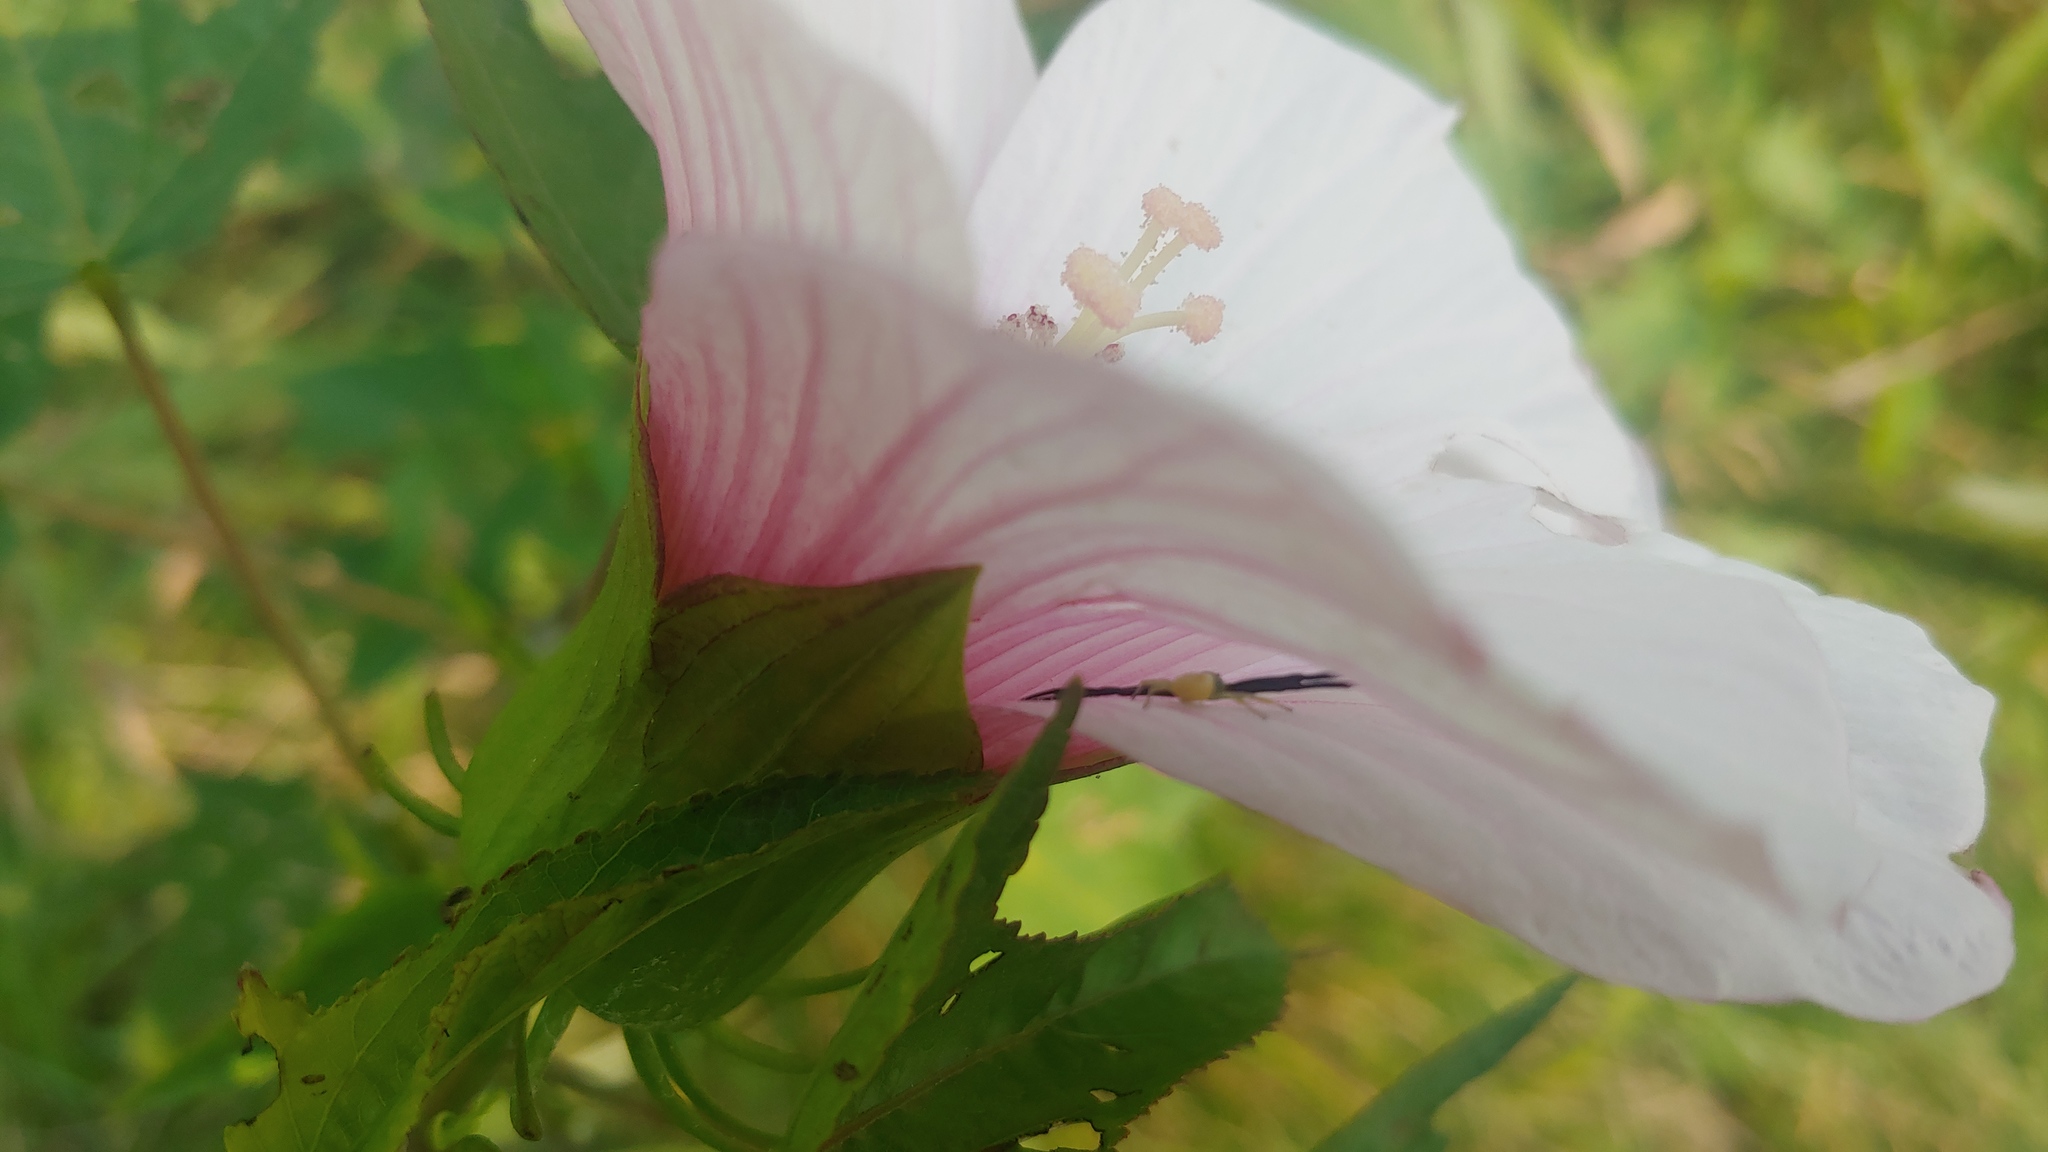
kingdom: Animalia
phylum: Arthropoda
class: Arachnida
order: Araneae
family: Thomisidae
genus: Misumenoides
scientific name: Misumenoides formosipes
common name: White-banded crab spider
